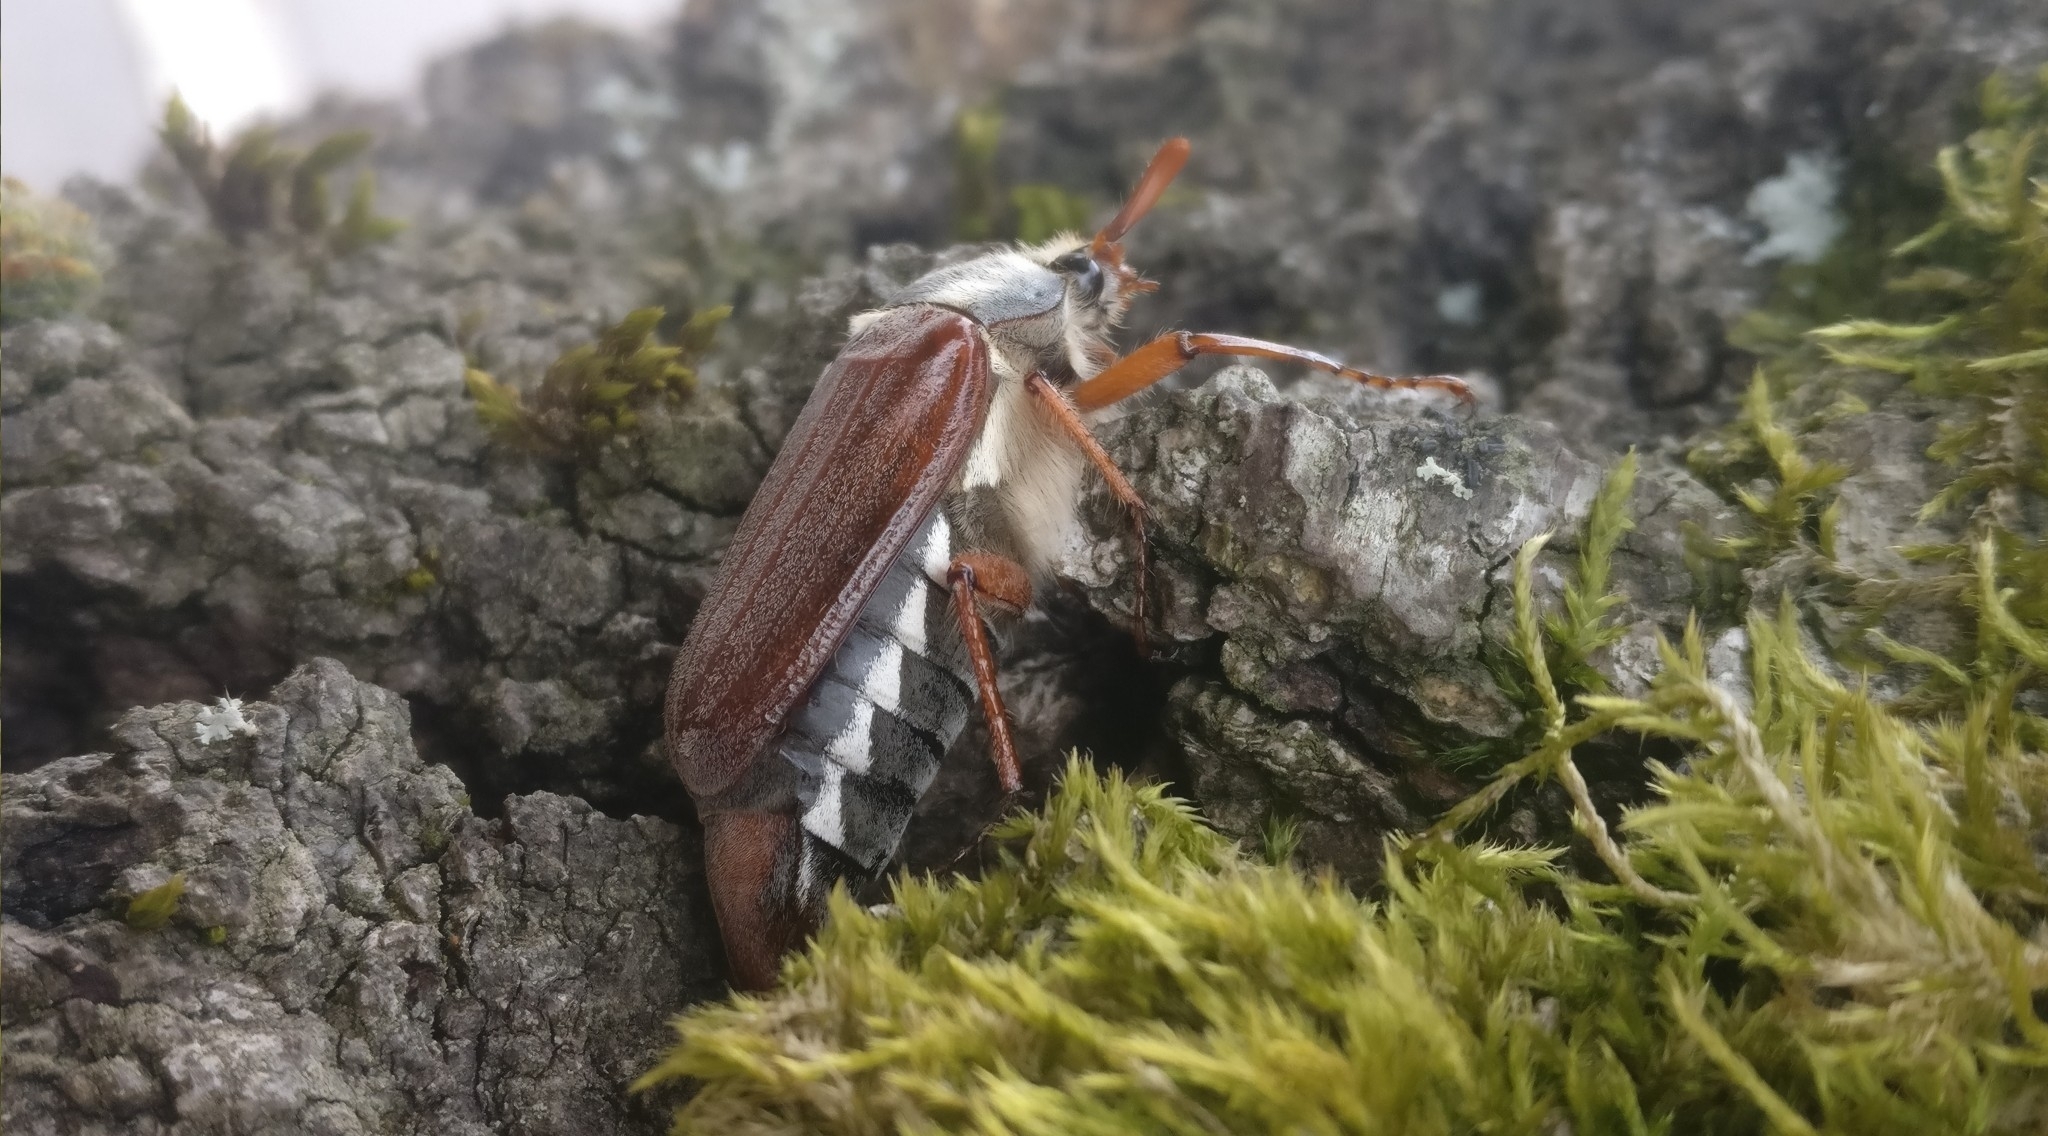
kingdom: Animalia
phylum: Arthropoda
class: Insecta
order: Coleoptera
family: Scarabaeidae
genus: Melolontha
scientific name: Melolontha melolontha
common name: Cockchafer maybeetle
